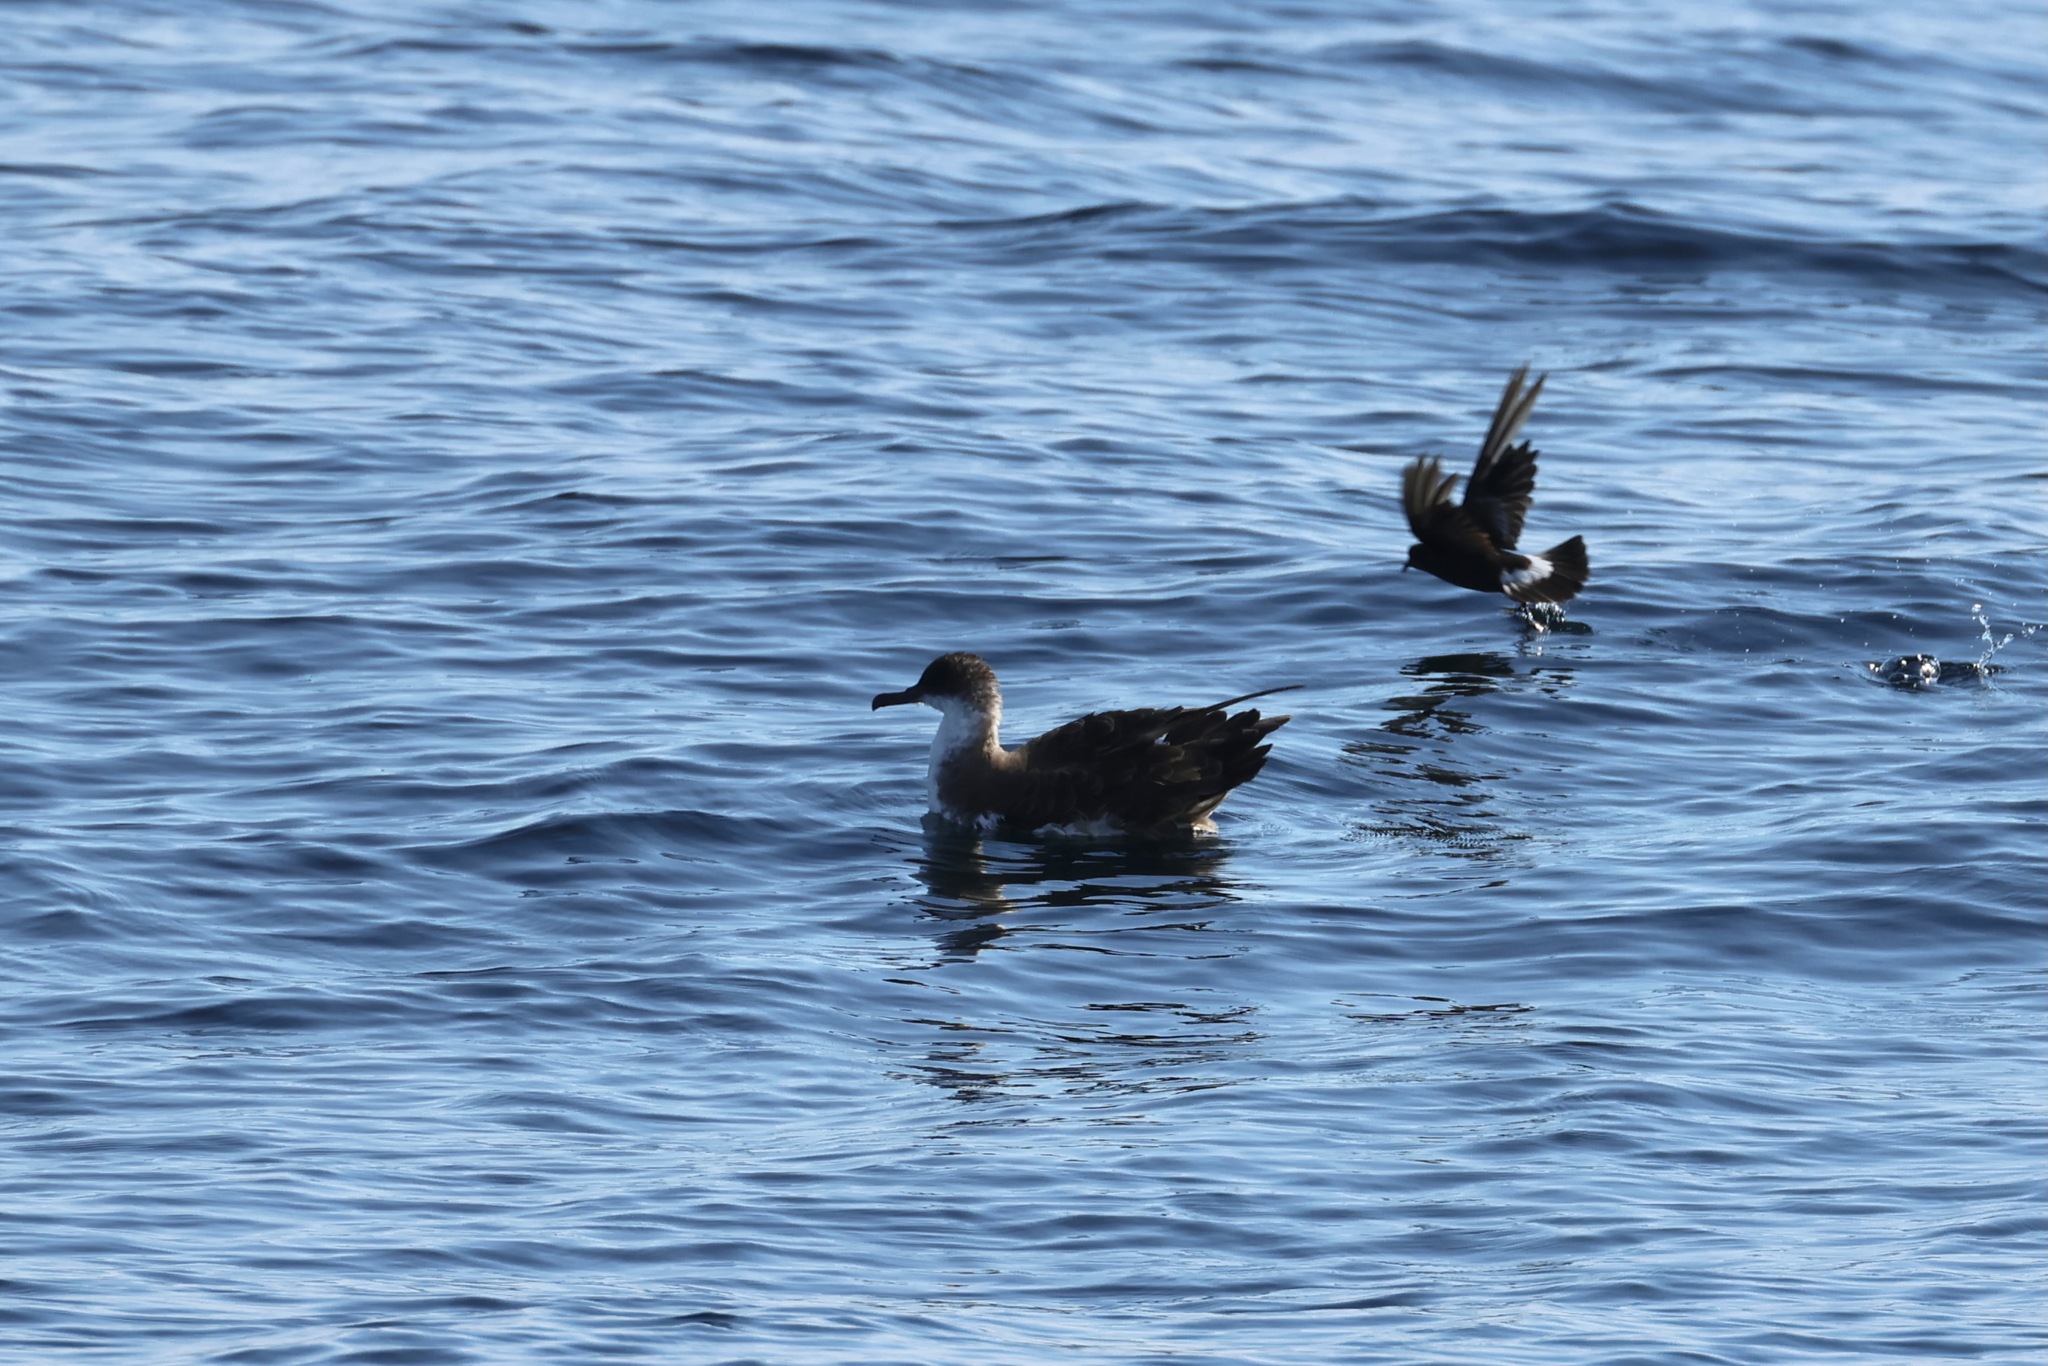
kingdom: Animalia
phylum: Chordata
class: Aves
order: Procellariiformes
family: Procellariidae
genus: Puffinus
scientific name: Puffinus gravis
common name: Great shearwater
